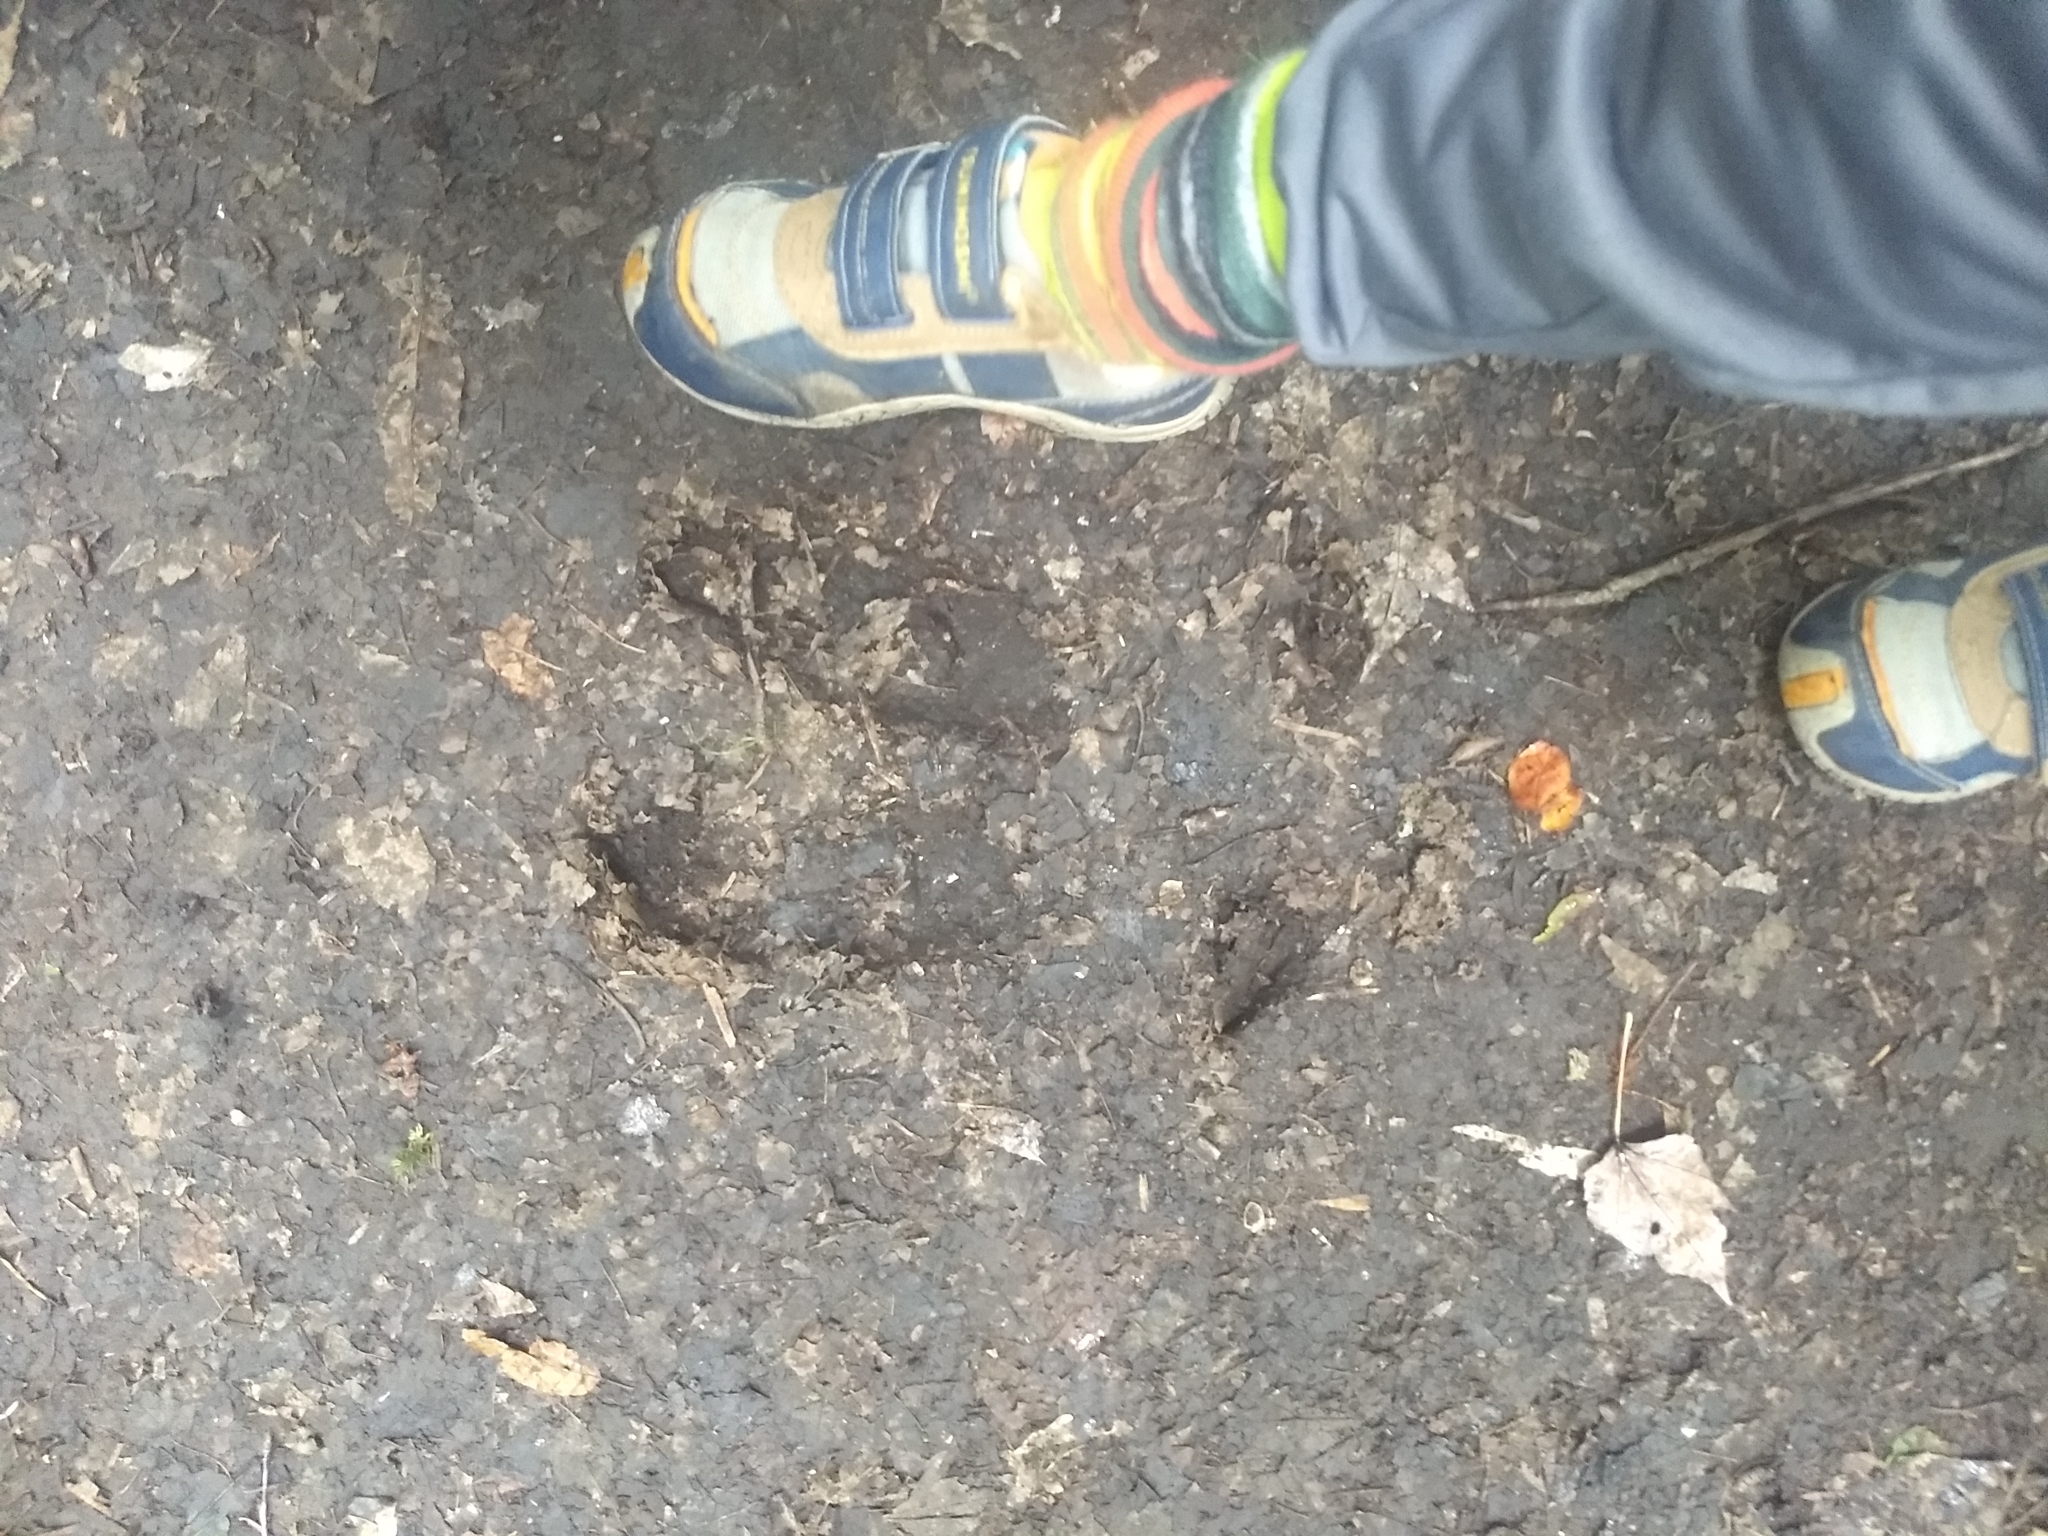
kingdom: Animalia
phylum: Chordata
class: Mammalia
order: Artiodactyla
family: Cervidae
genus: Alces
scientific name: Alces alces
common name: Moose
